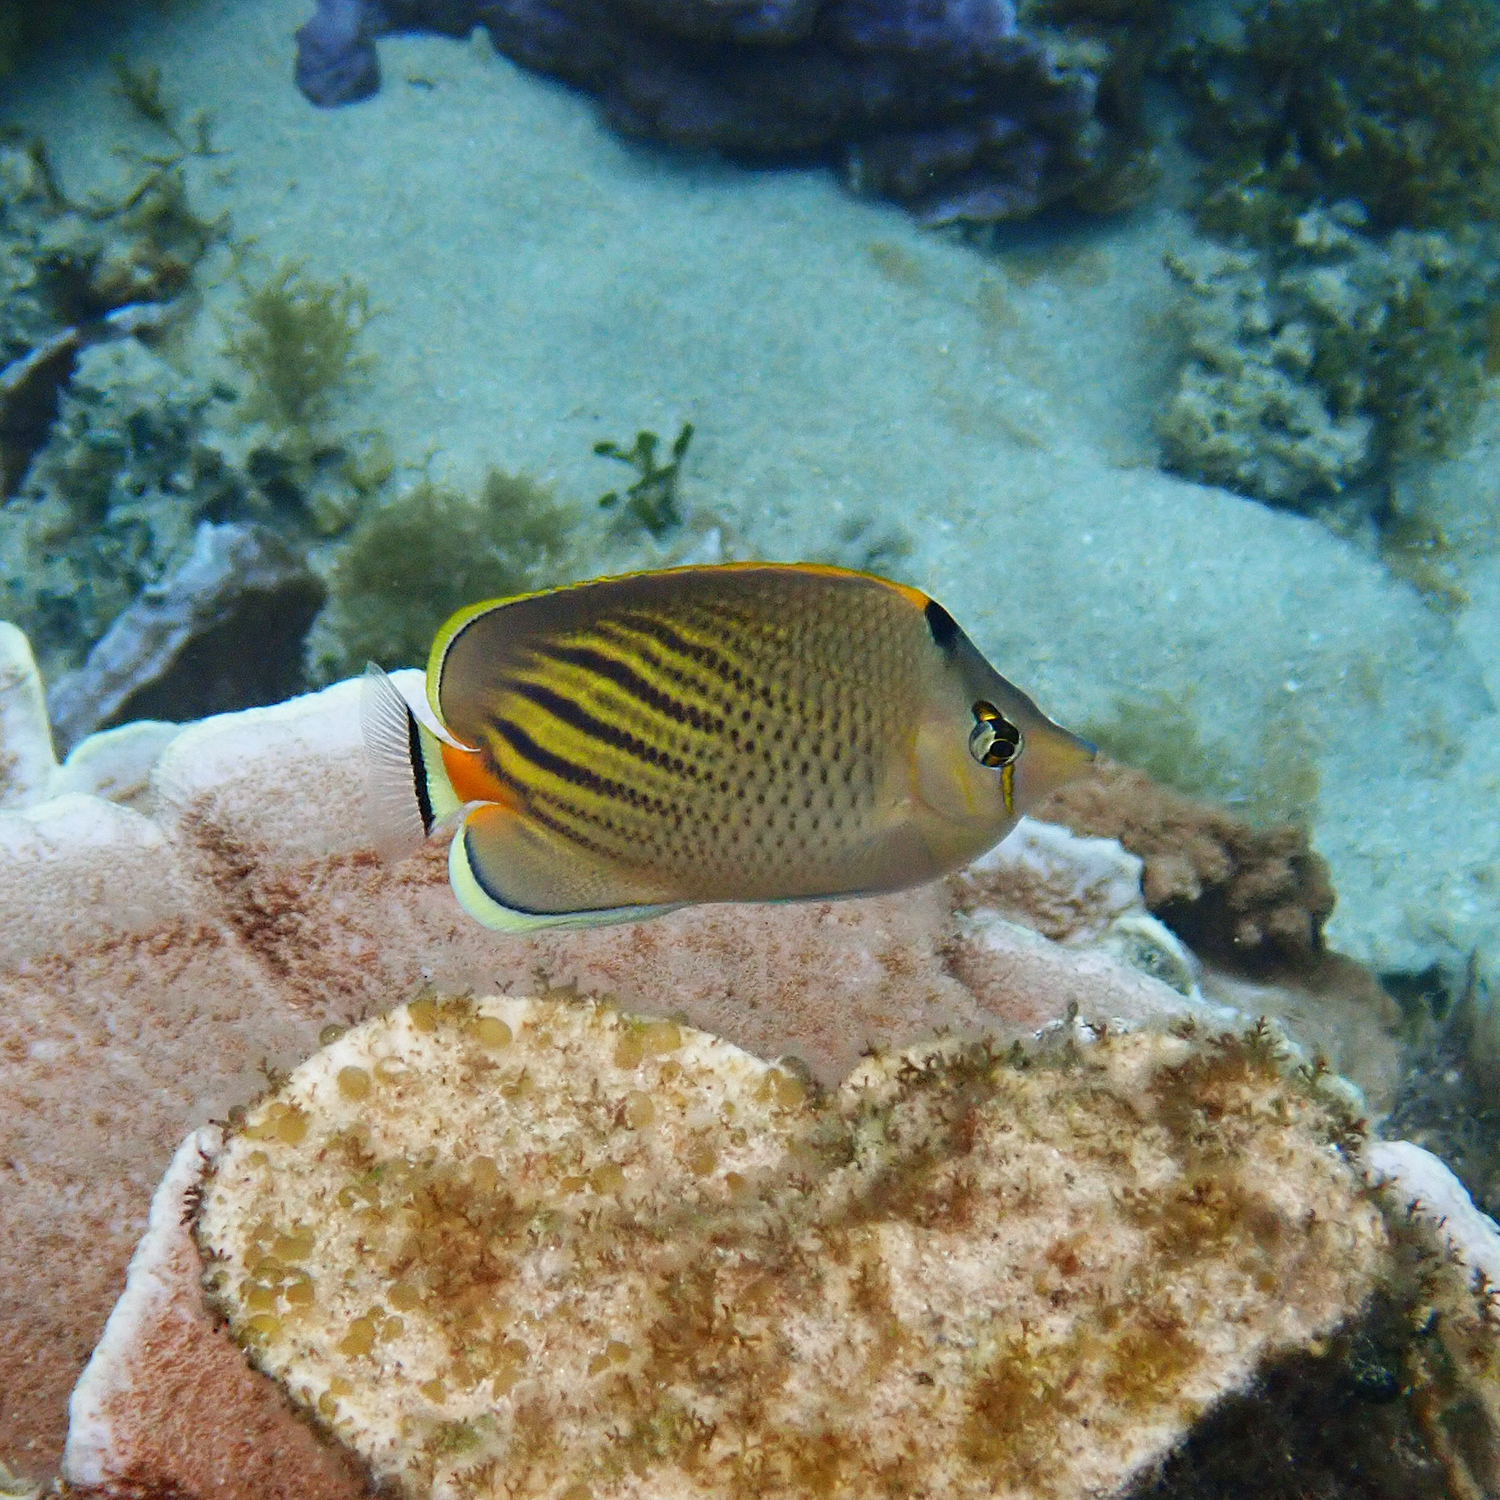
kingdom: Animalia
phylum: Chordata
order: Perciformes
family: Chaetodontidae
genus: Chaetodon
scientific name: Chaetodon pelewensis
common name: Dot-and-dash butterflyfish
